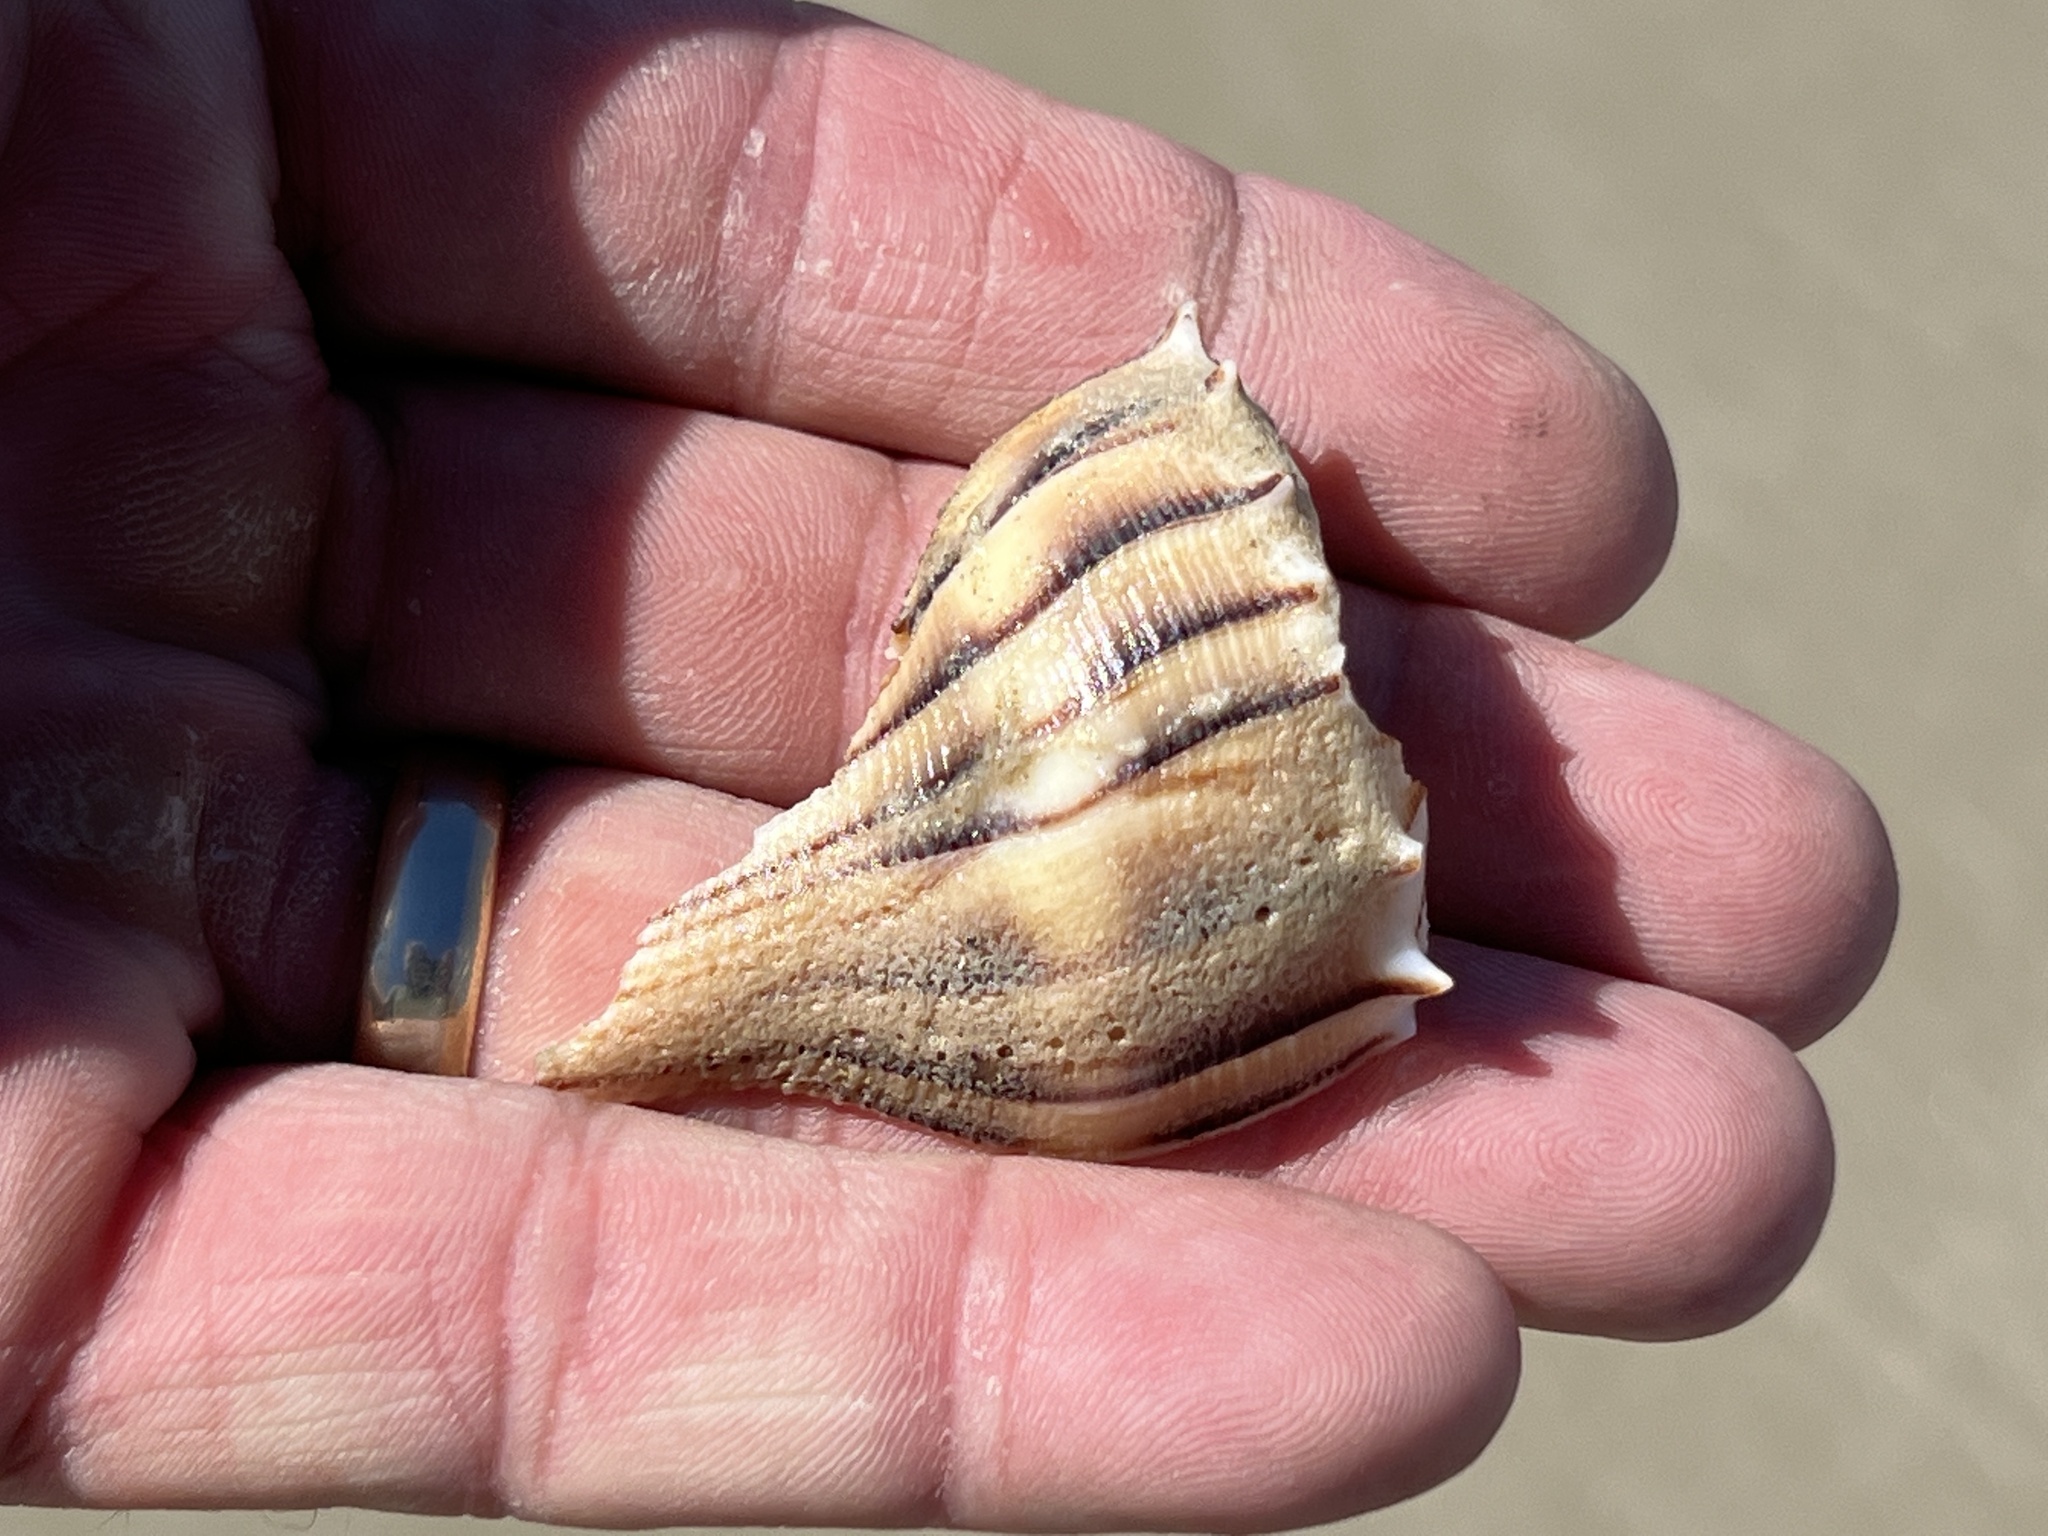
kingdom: Animalia
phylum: Mollusca
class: Gastropoda
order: Neogastropoda
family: Busyconidae
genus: Sinistrofulgur
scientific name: Sinistrofulgur pulleyi
